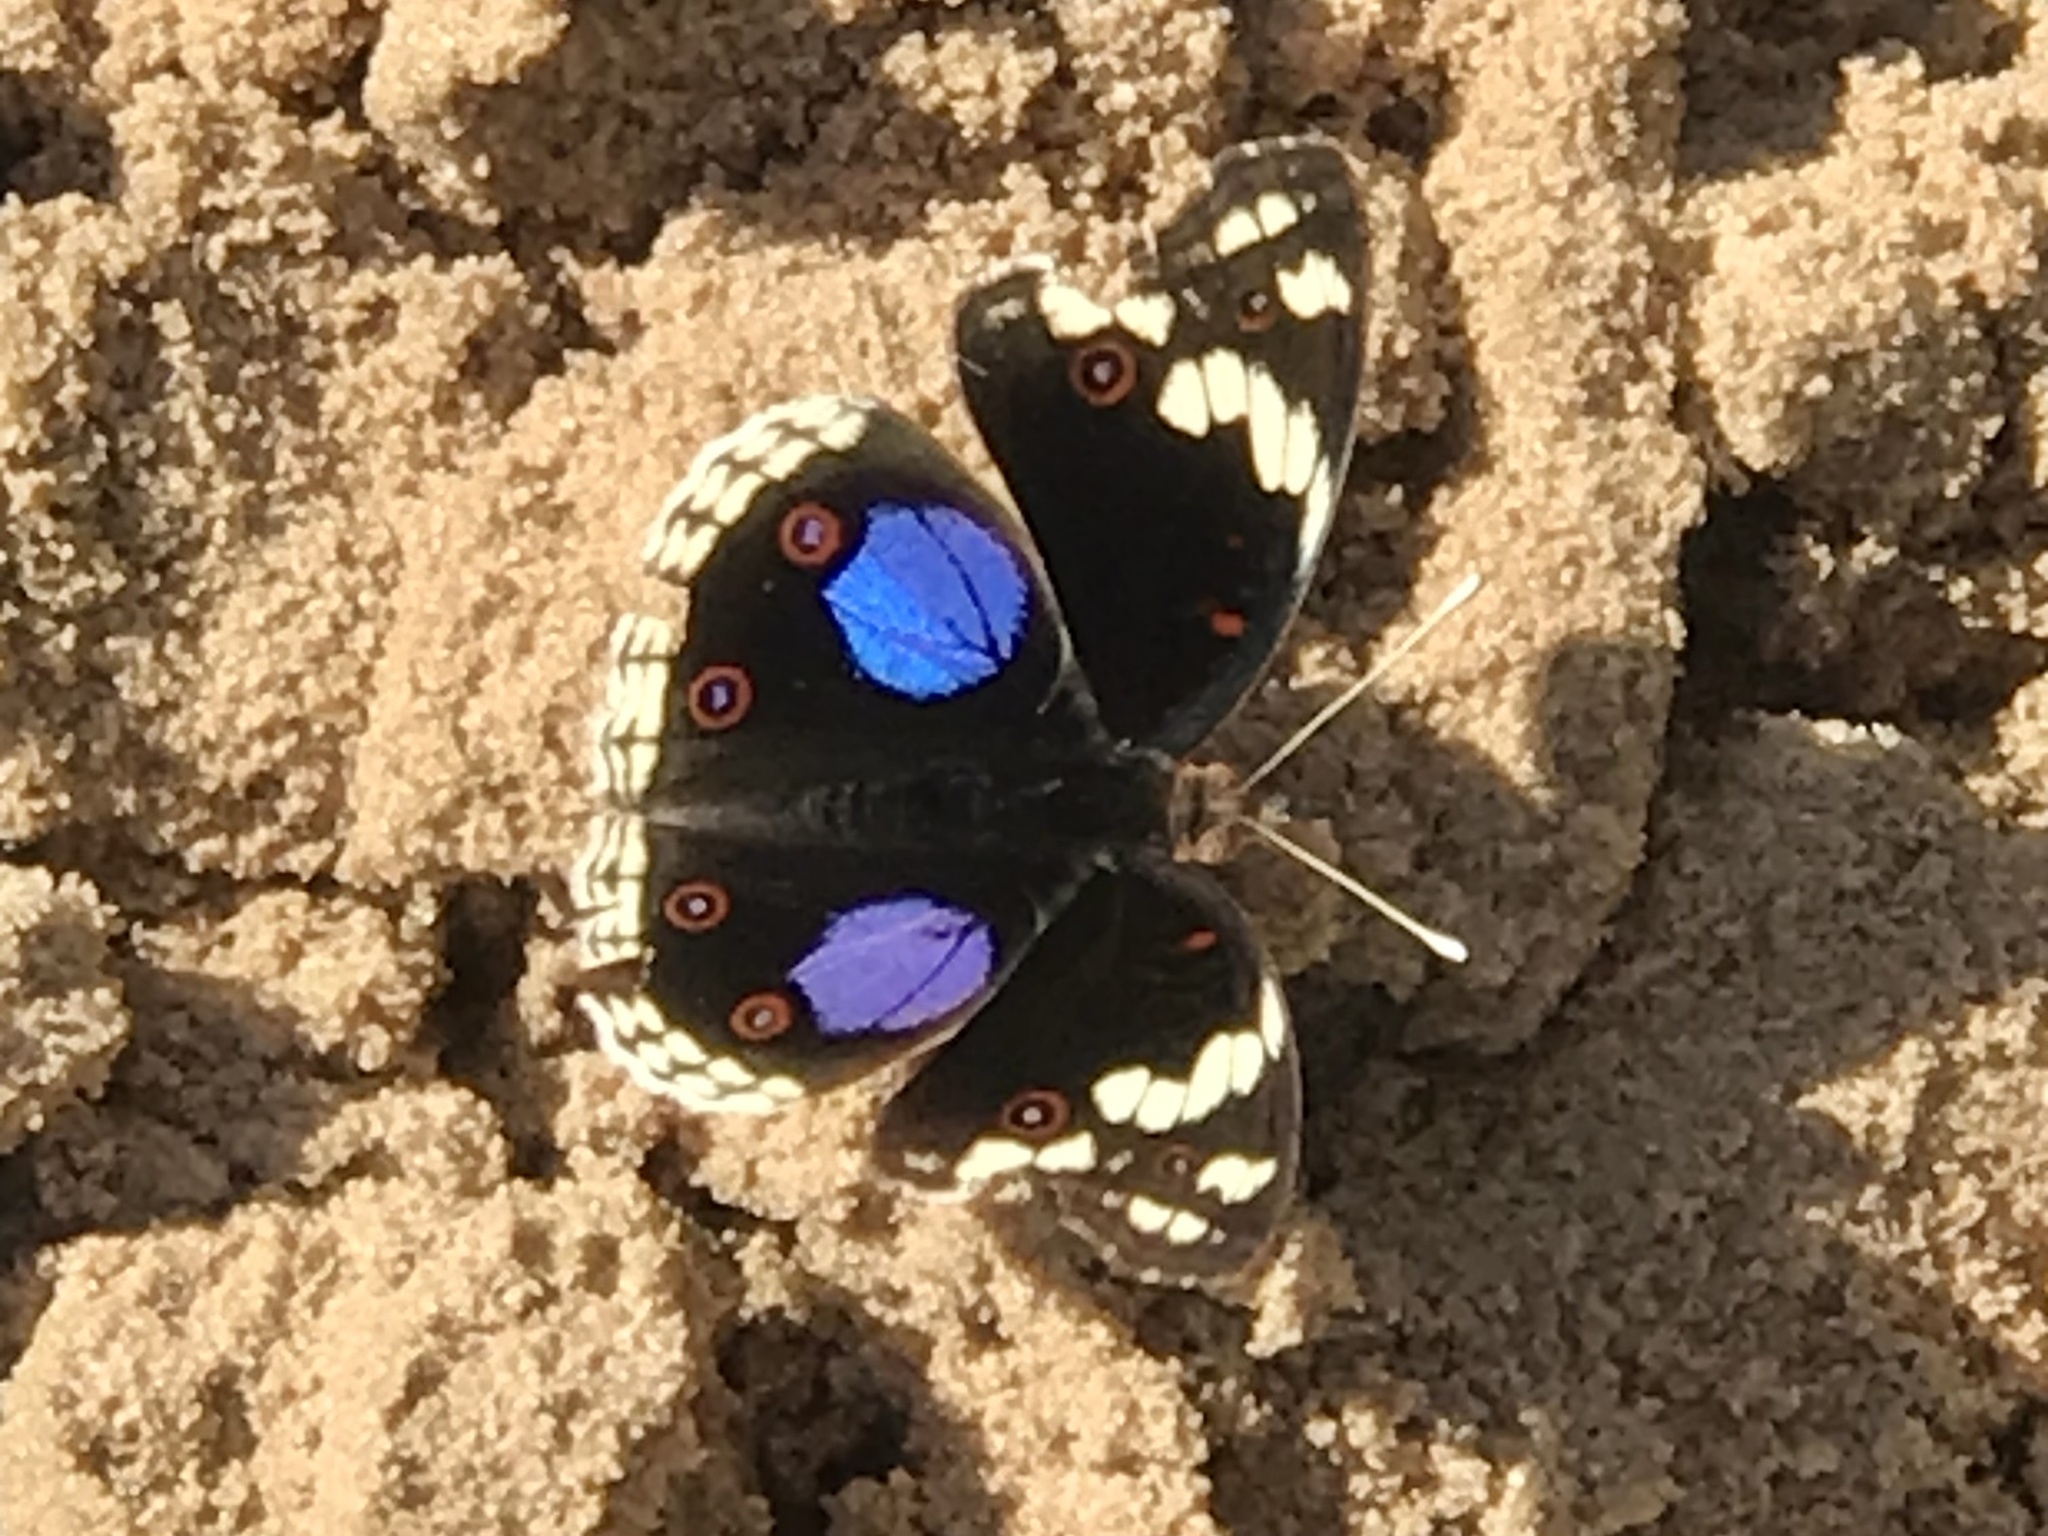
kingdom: Animalia
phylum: Arthropoda
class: Insecta
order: Lepidoptera
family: Nymphalidae
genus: Junonia
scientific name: Junonia oenone
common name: Dark blue pansy
